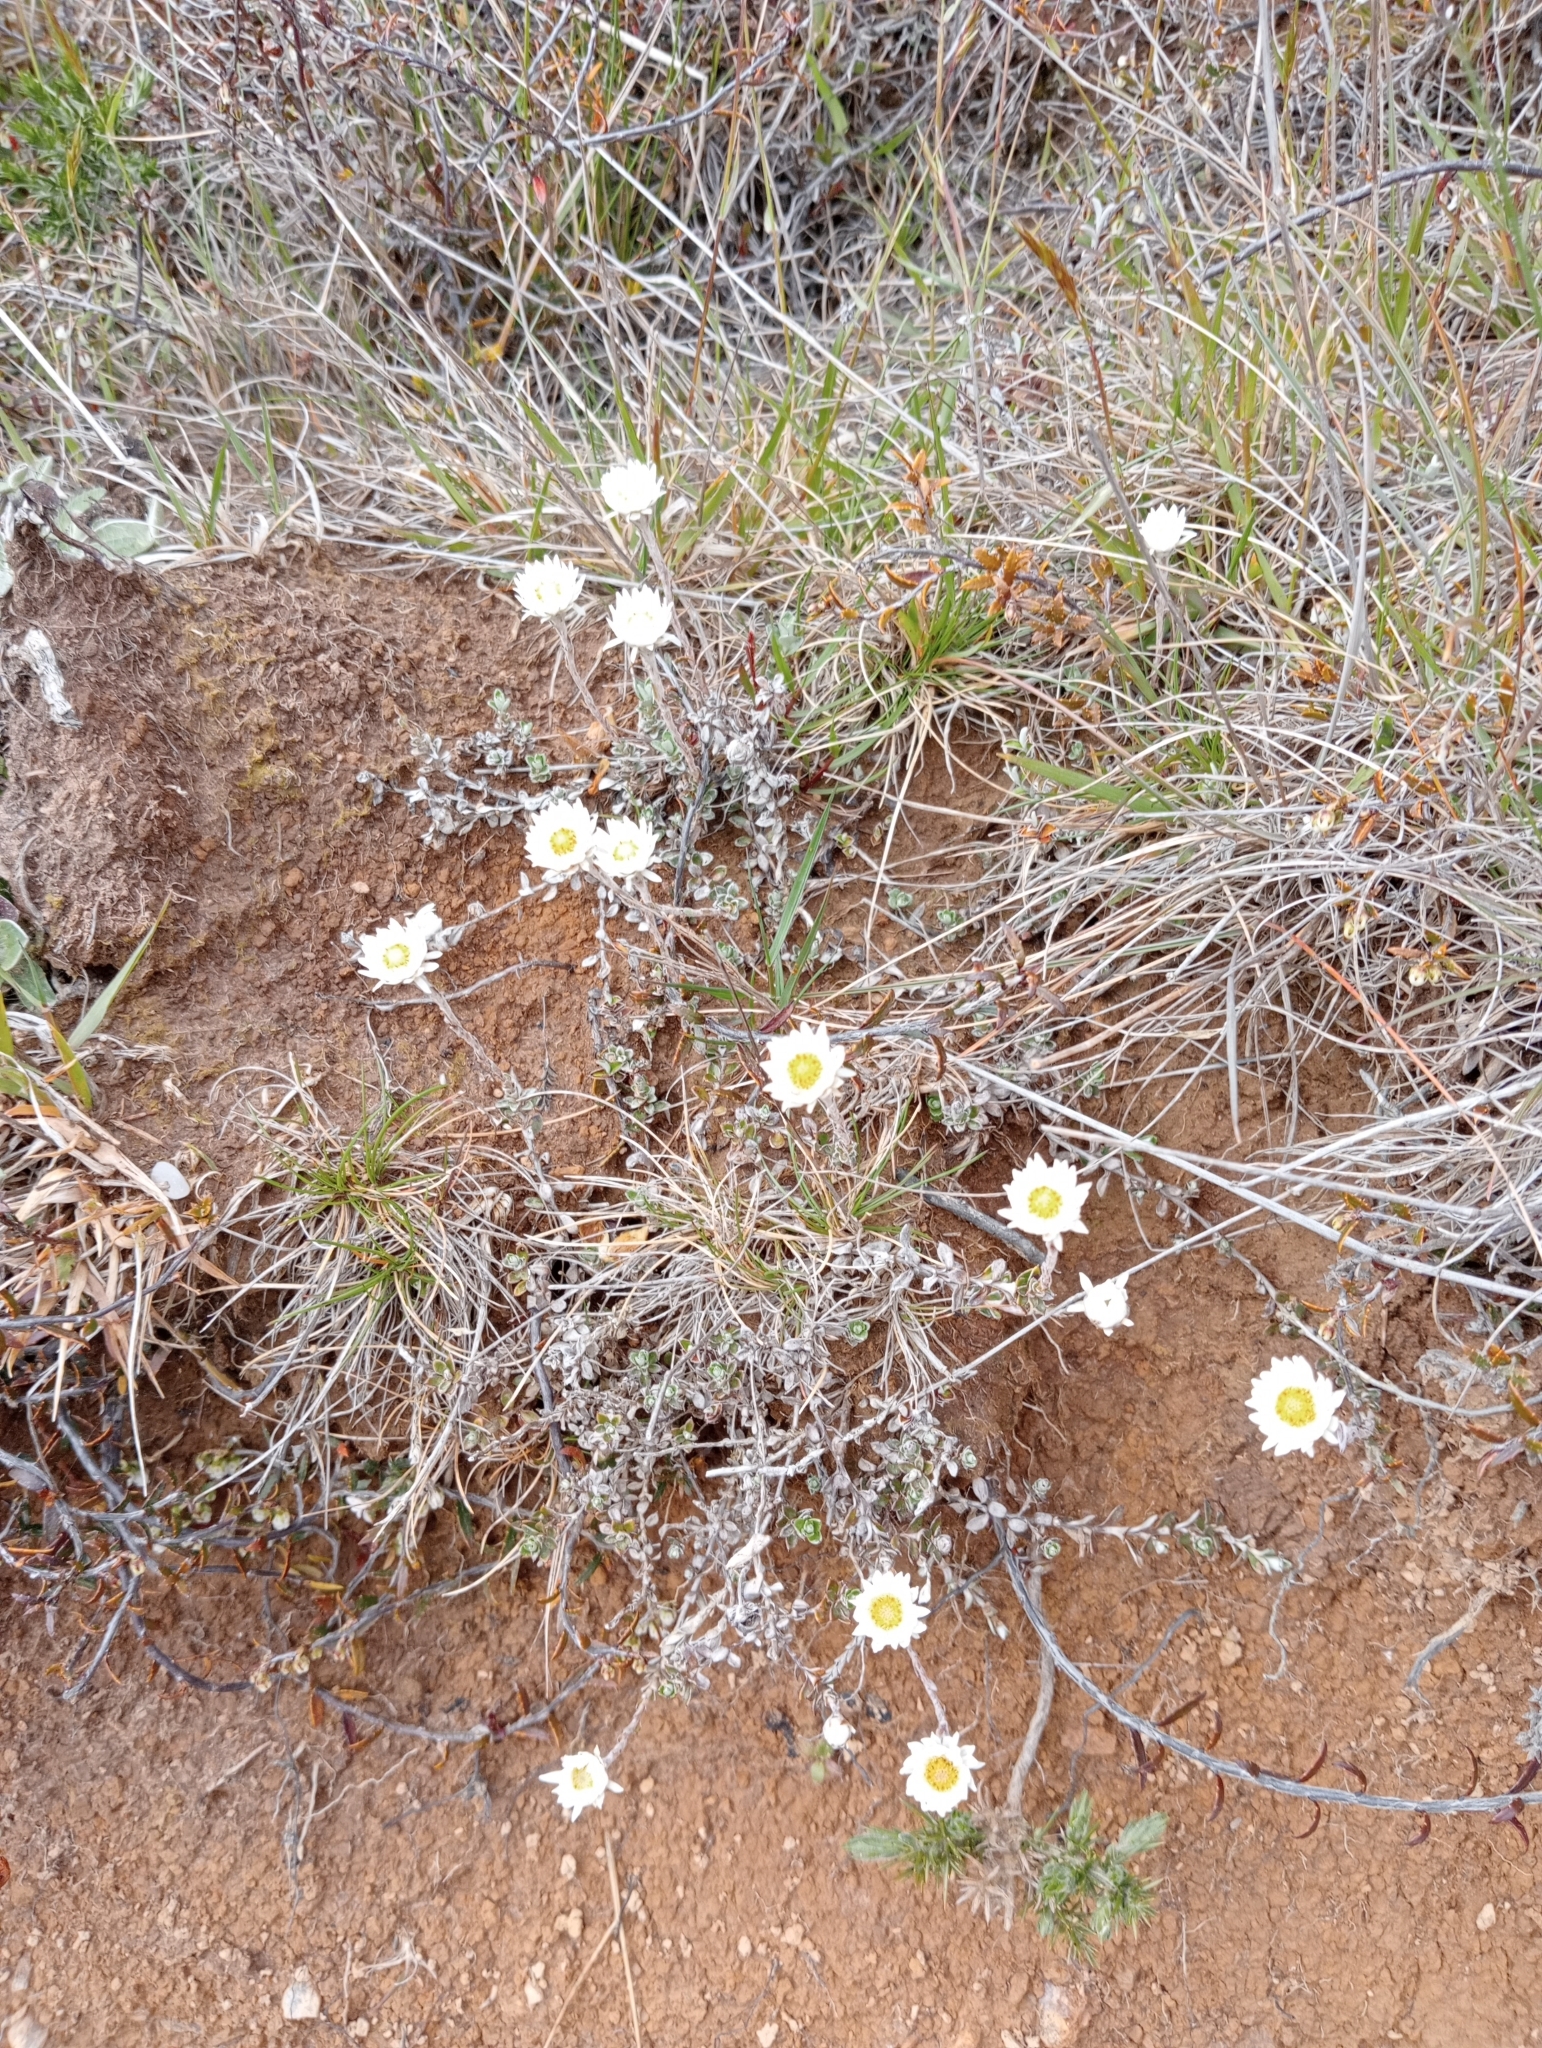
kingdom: Plantae
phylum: Tracheophyta
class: Magnoliopsida
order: Asterales
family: Asteraceae
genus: Anaphalioides
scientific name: Anaphalioides bellidioides
